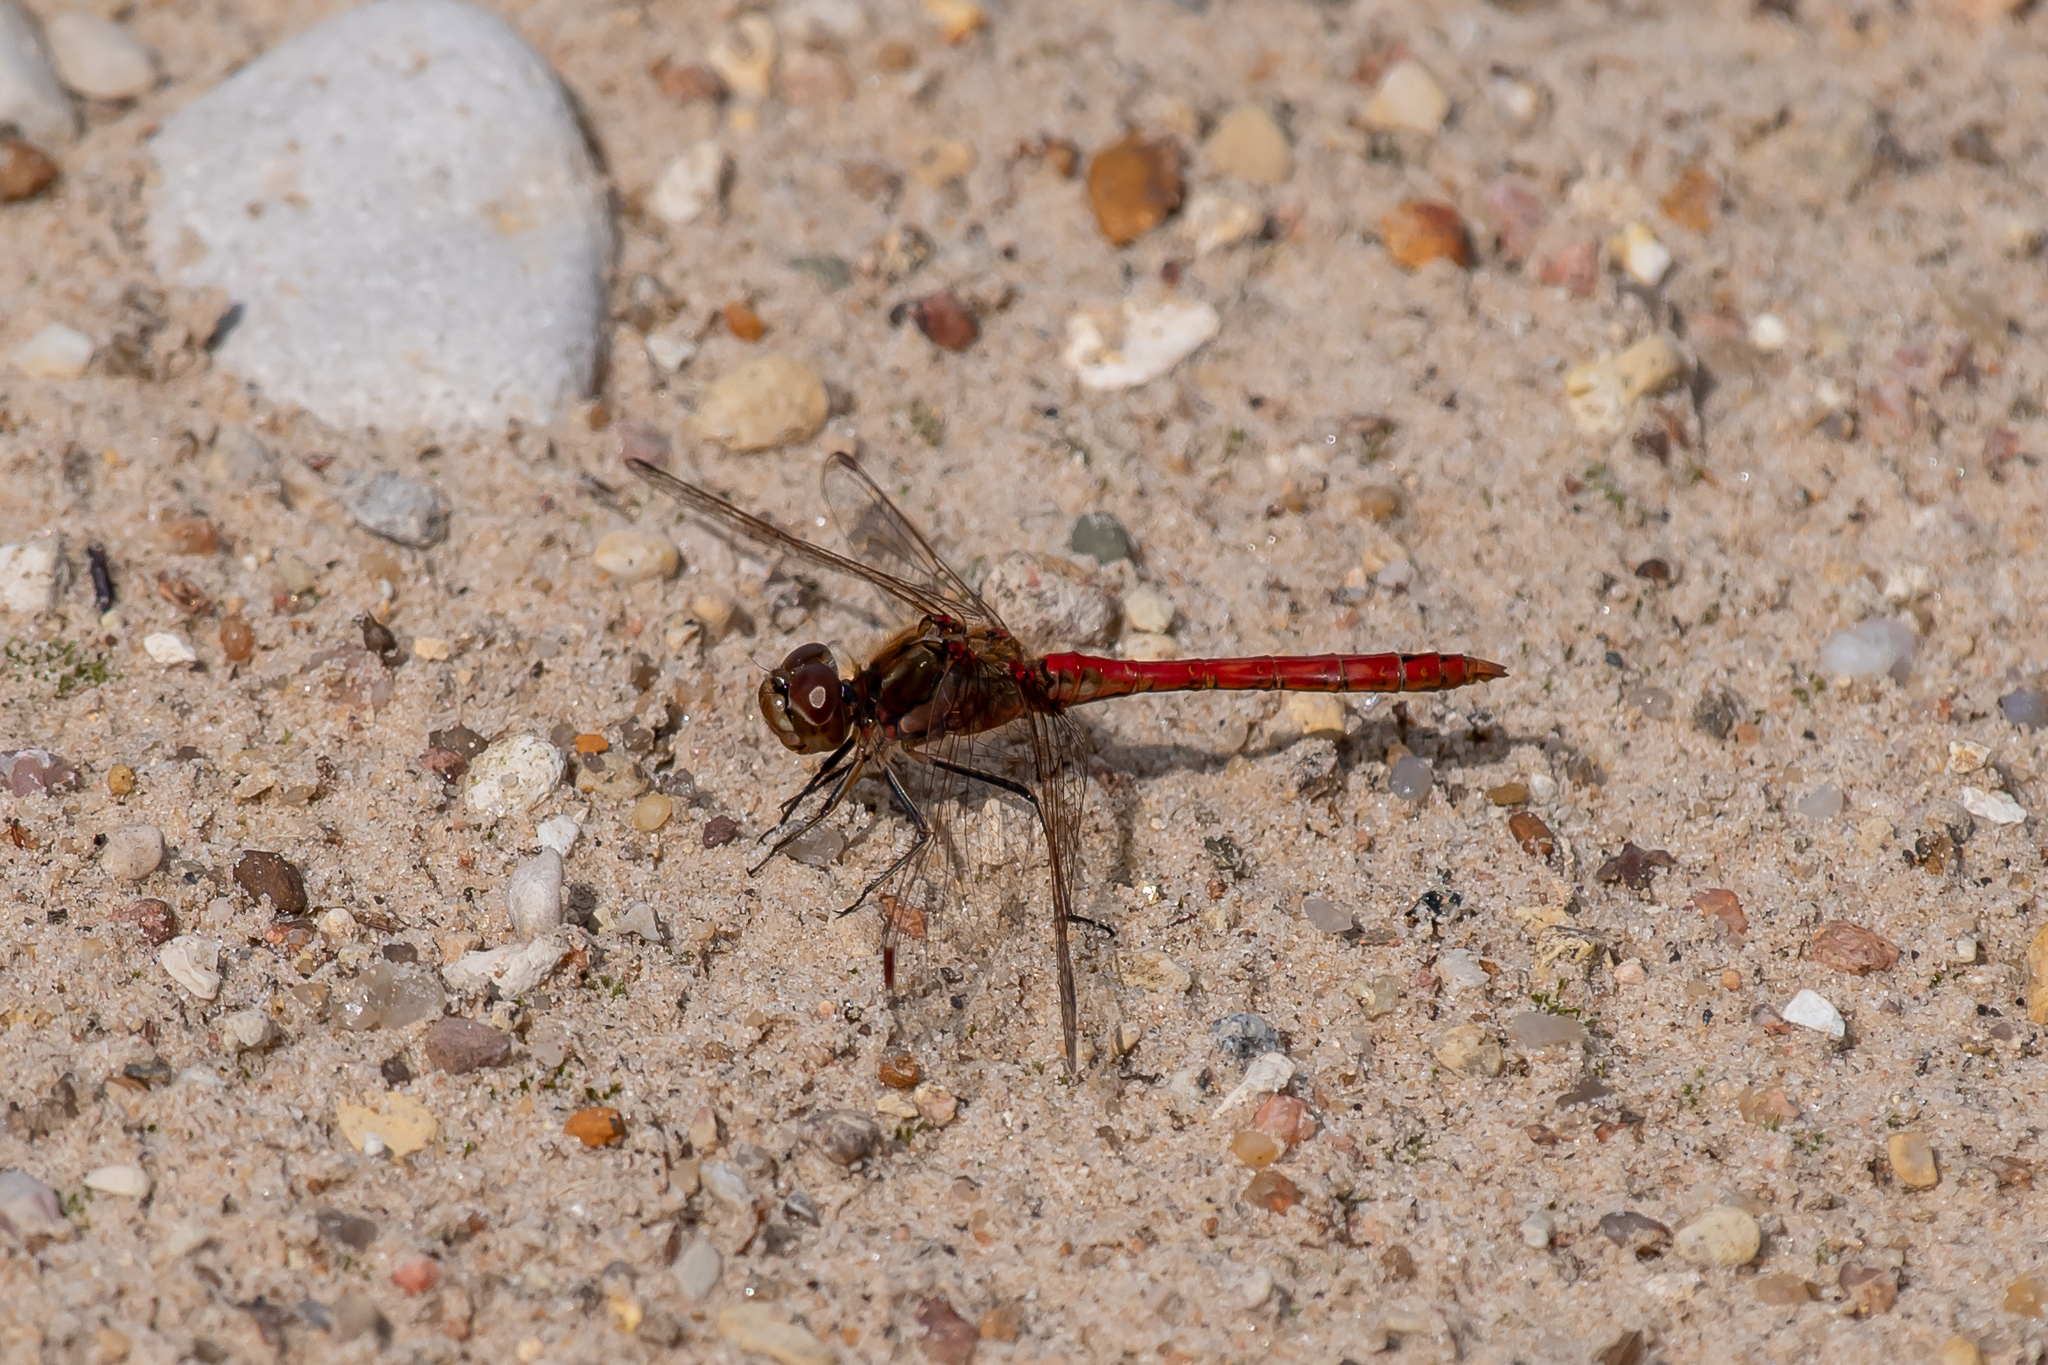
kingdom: Animalia
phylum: Arthropoda
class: Insecta
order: Odonata
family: Libellulidae
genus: Sympetrum
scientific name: Sympetrum vulgatum
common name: Vagrant darter
